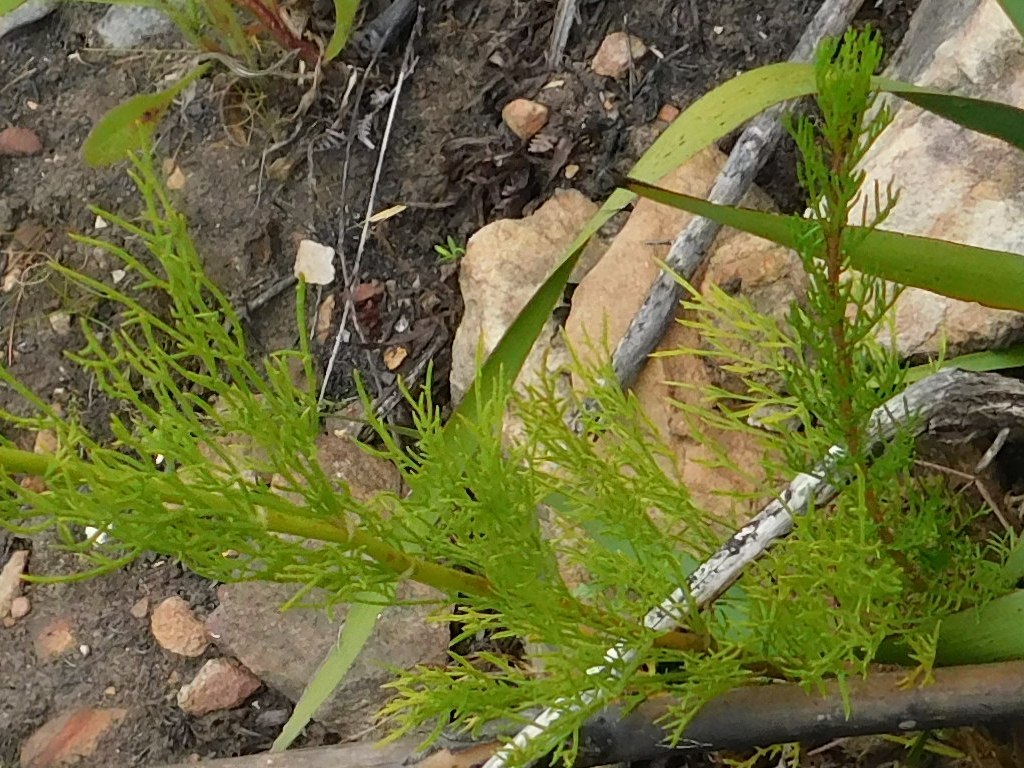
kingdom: Plantae
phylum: Tracheophyta
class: Magnoliopsida
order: Apiales
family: Apiaceae
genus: Notobubon
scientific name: Notobubon ferulaceum
